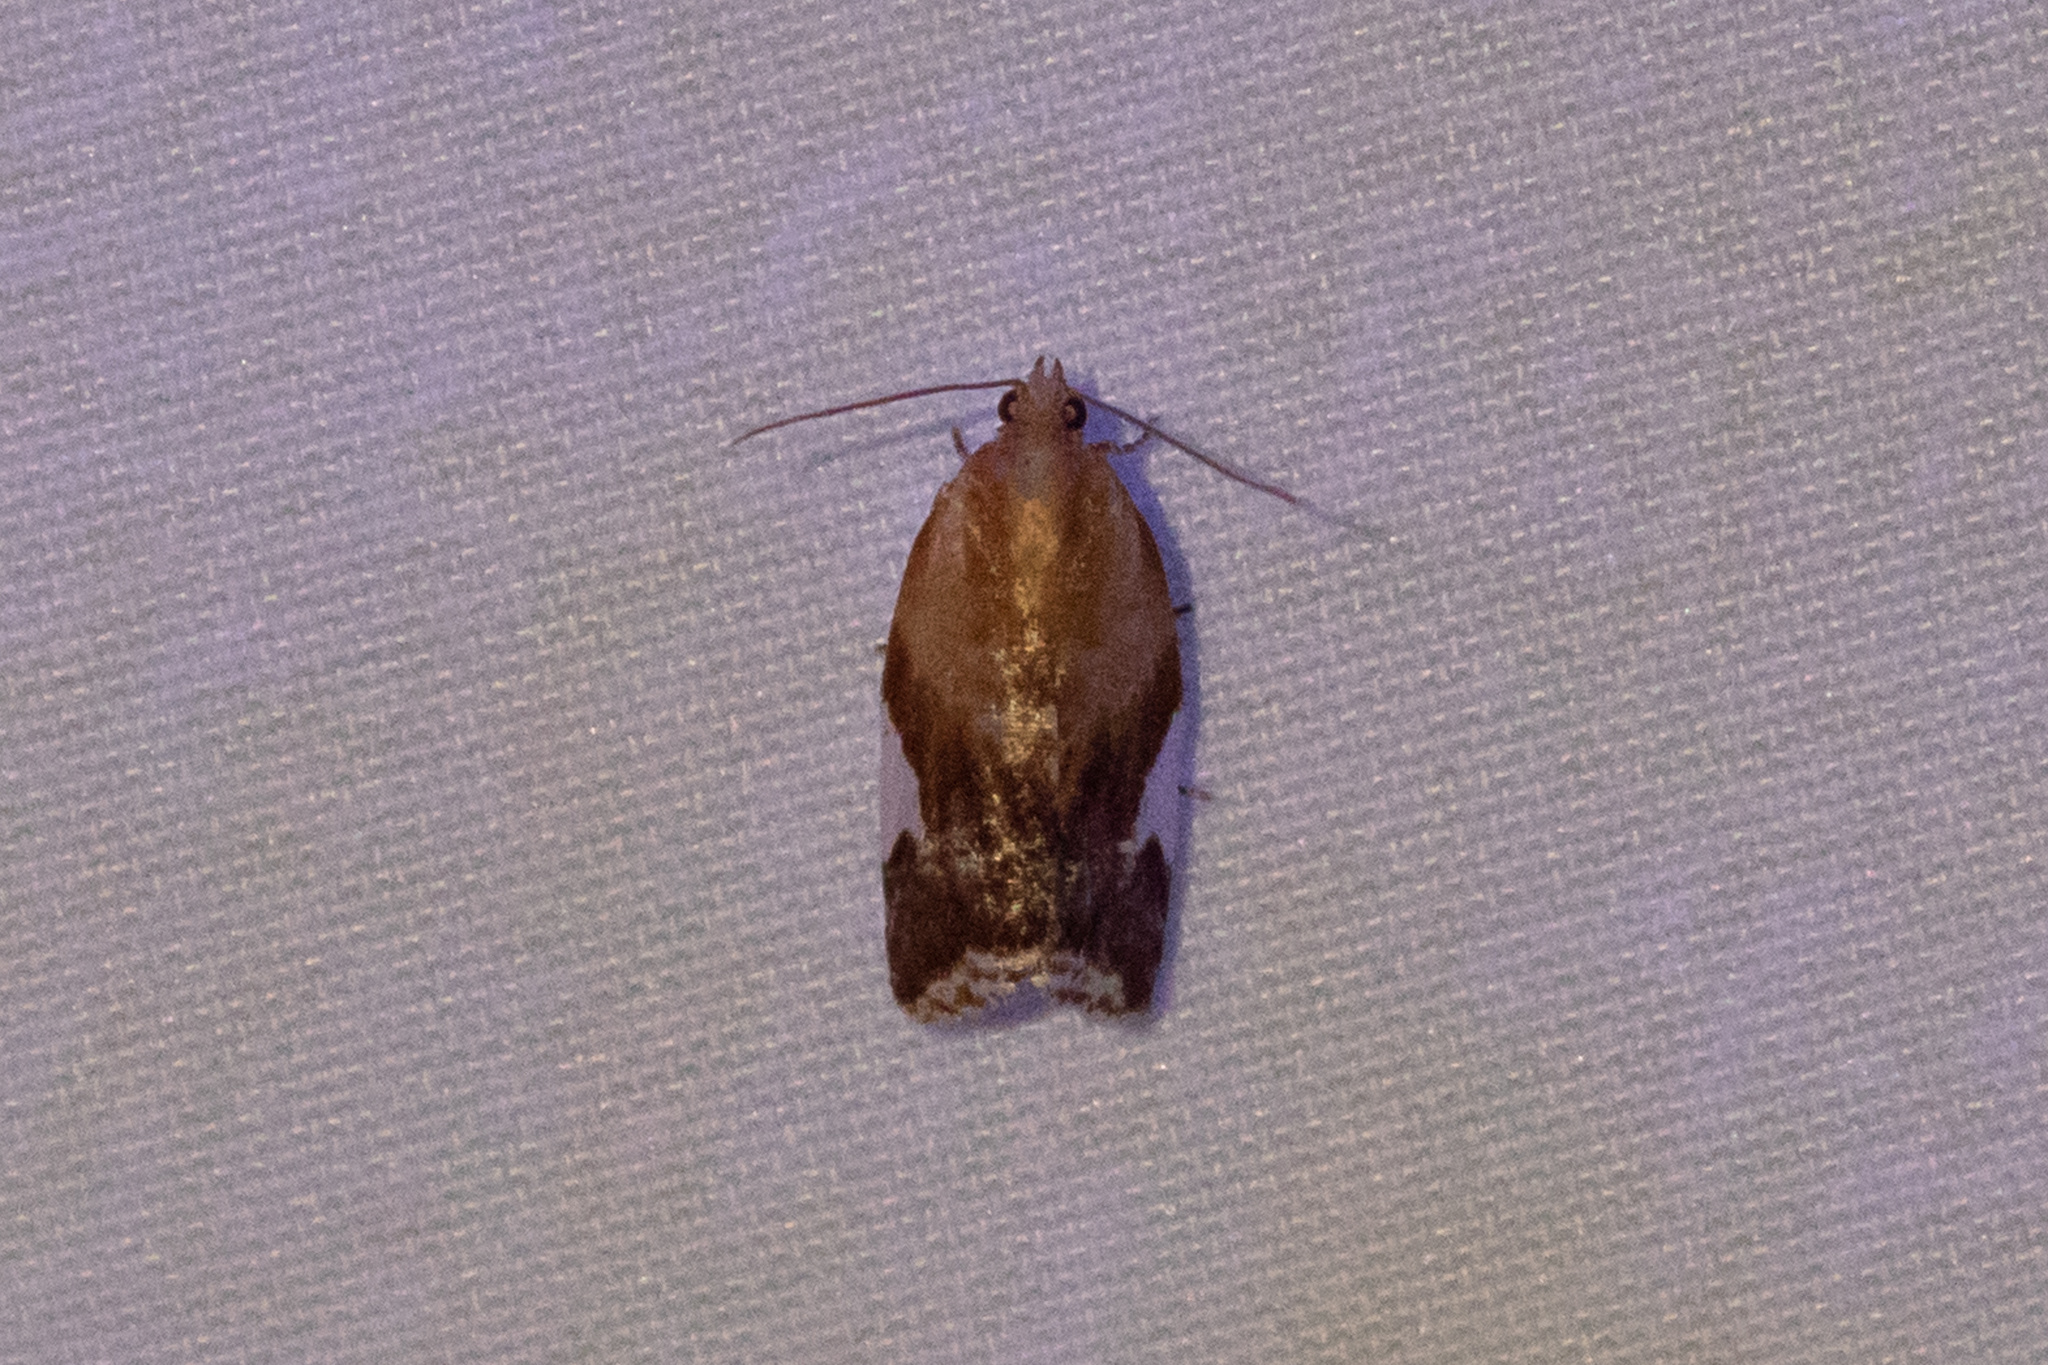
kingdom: Animalia
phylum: Arthropoda
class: Insecta
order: Lepidoptera
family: Tortricidae
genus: Clepsis
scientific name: Clepsis persicana
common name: White triangle tortrix
